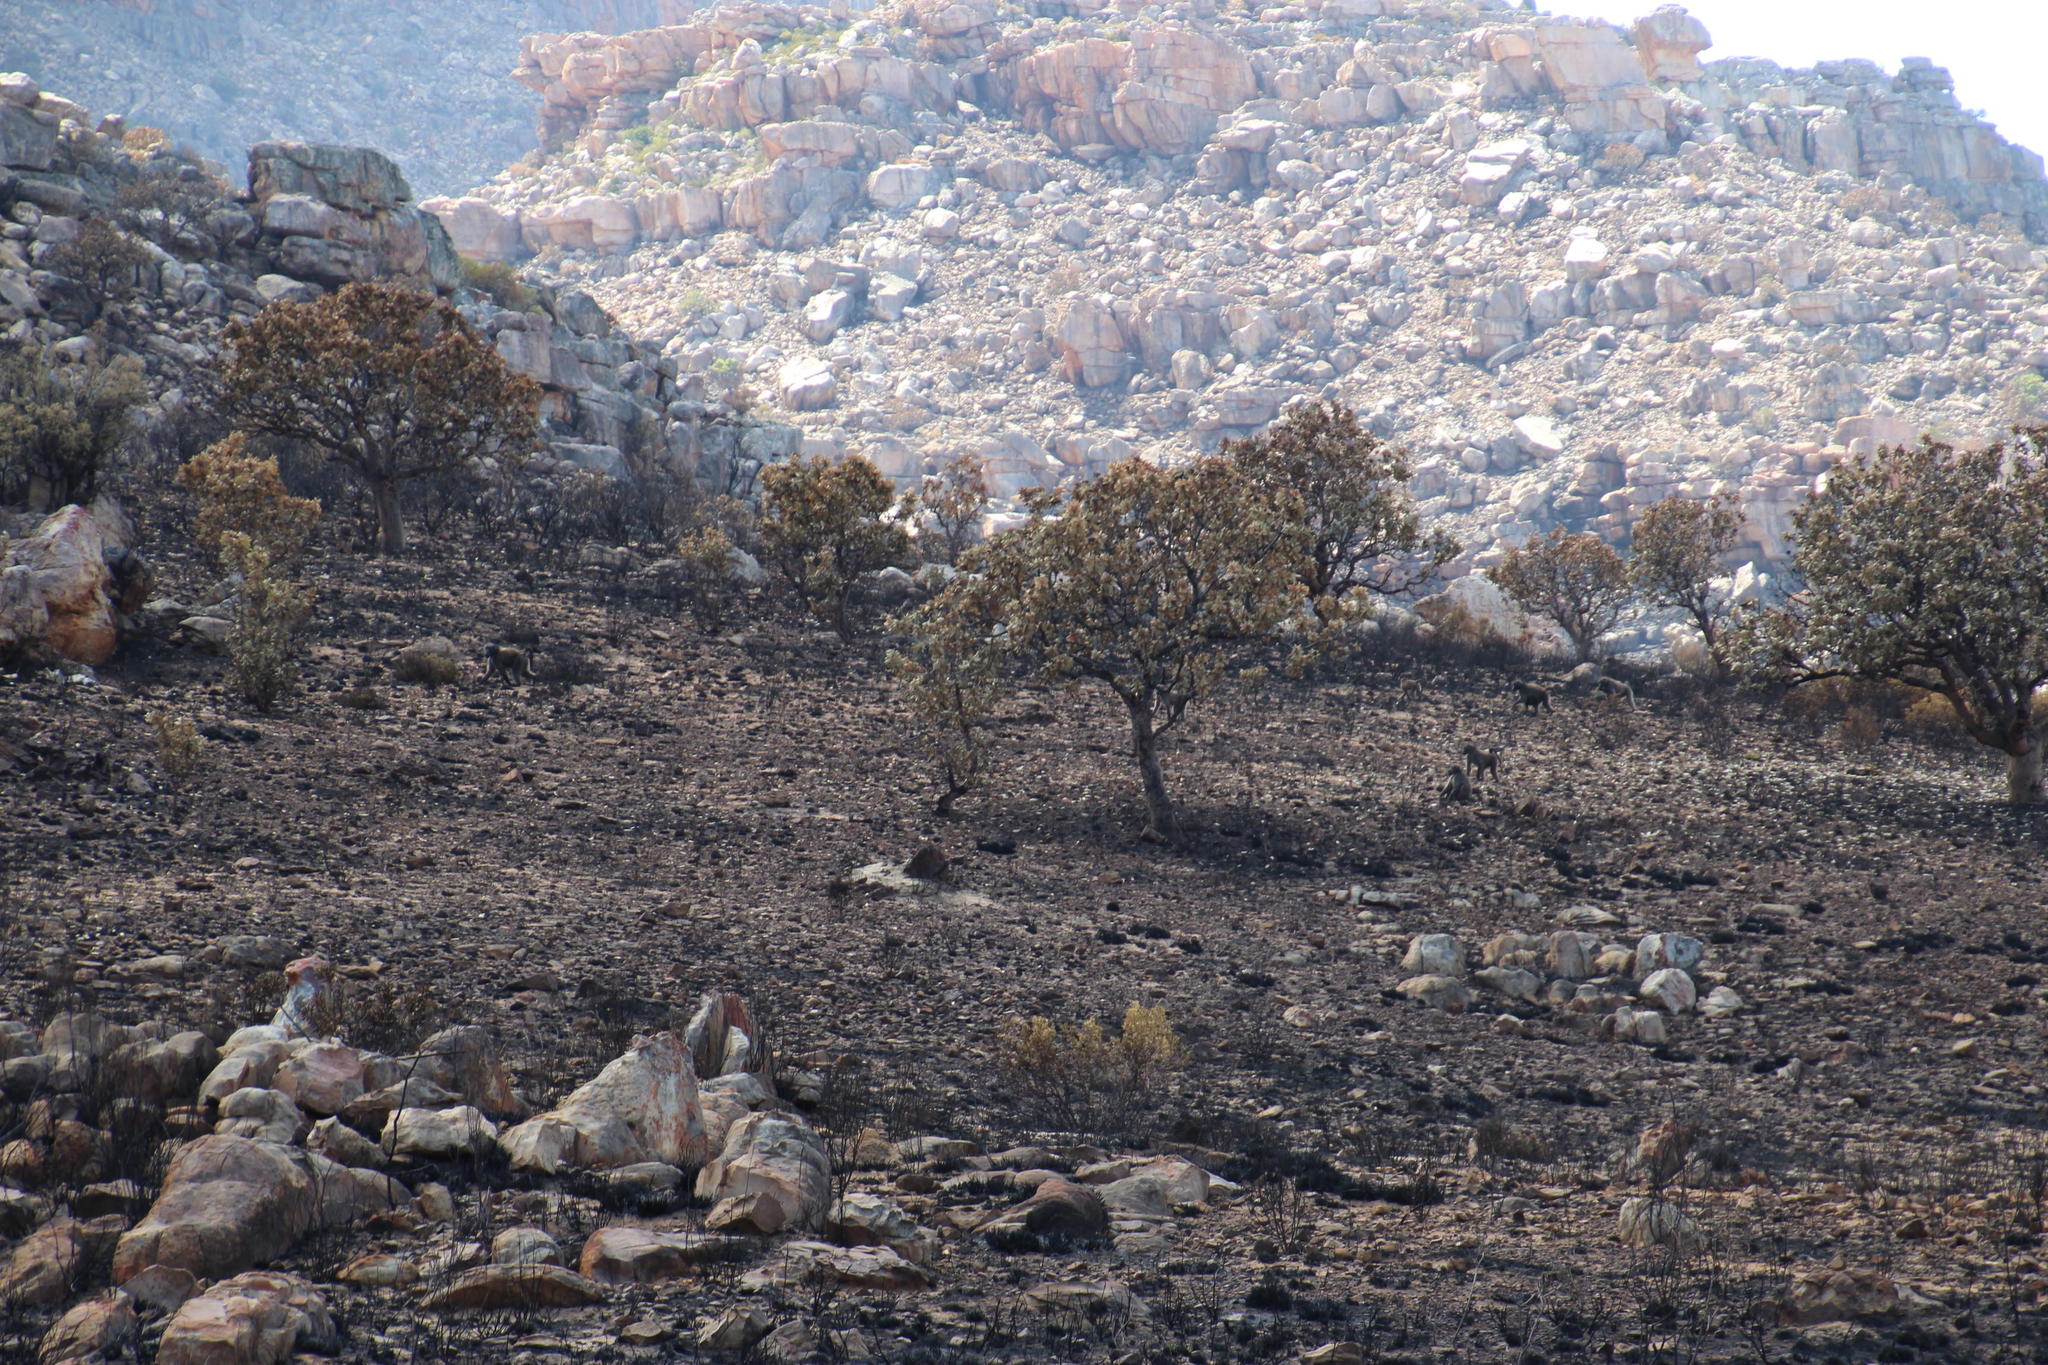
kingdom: Animalia
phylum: Chordata
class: Mammalia
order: Primates
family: Cercopithecidae
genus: Papio
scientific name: Papio ursinus
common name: Chacma baboon
